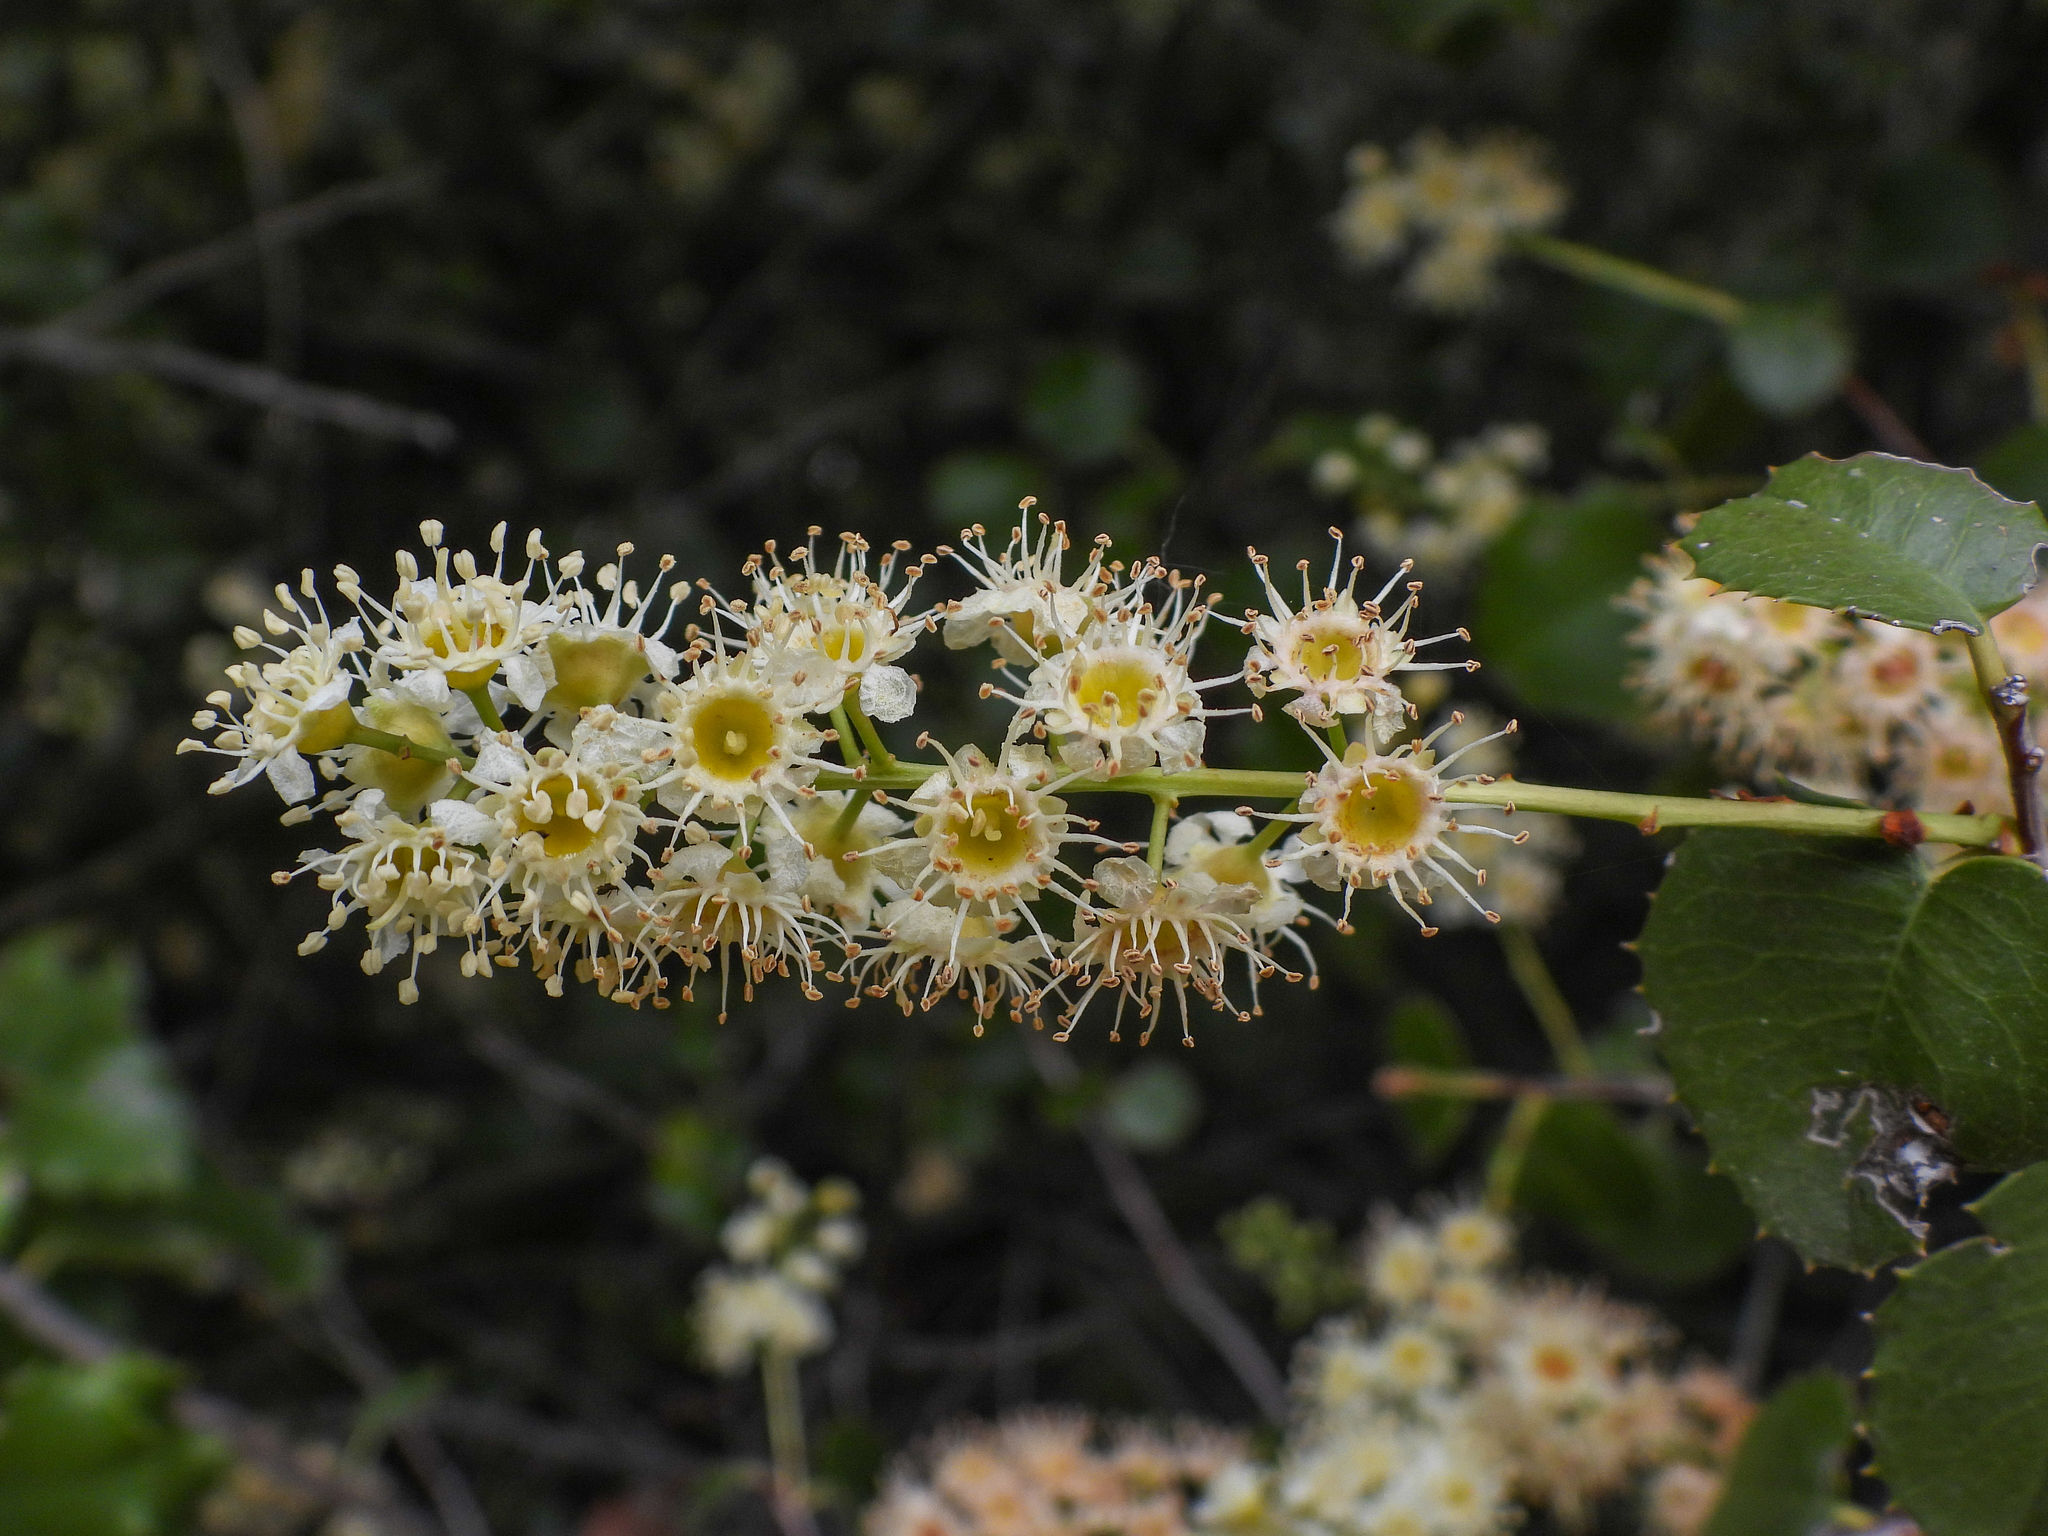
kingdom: Plantae
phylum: Tracheophyta
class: Magnoliopsida
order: Rosales
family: Rosaceae
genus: Prunus
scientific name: Prunus ilicifolia
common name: Hollyleaf cherry
